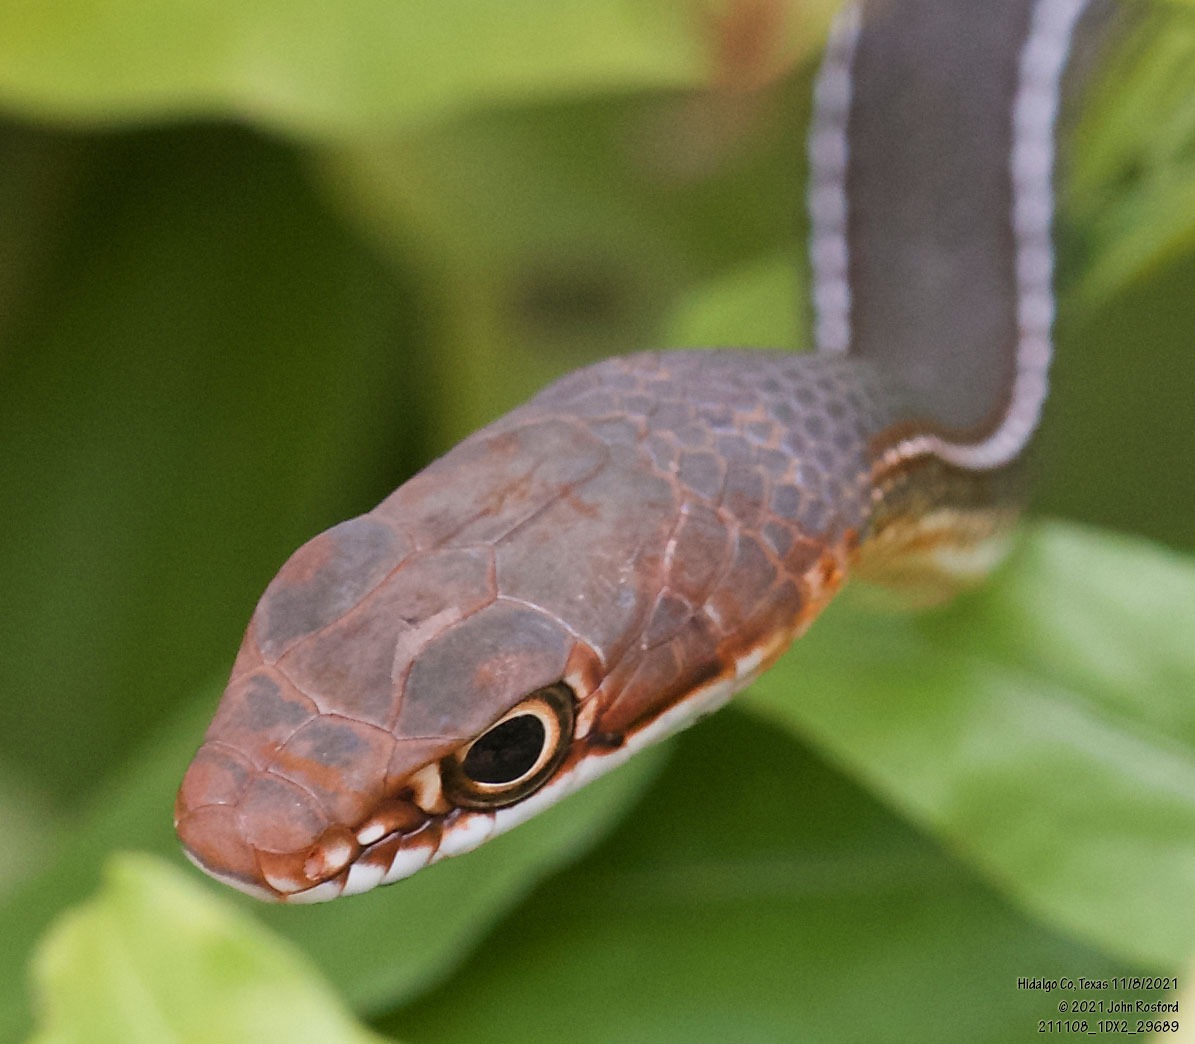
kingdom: Animalia
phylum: Chordata
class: Squamata
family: Colubridae
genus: Masticophis
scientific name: Masticophis schotti
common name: Schott's whipsnake
